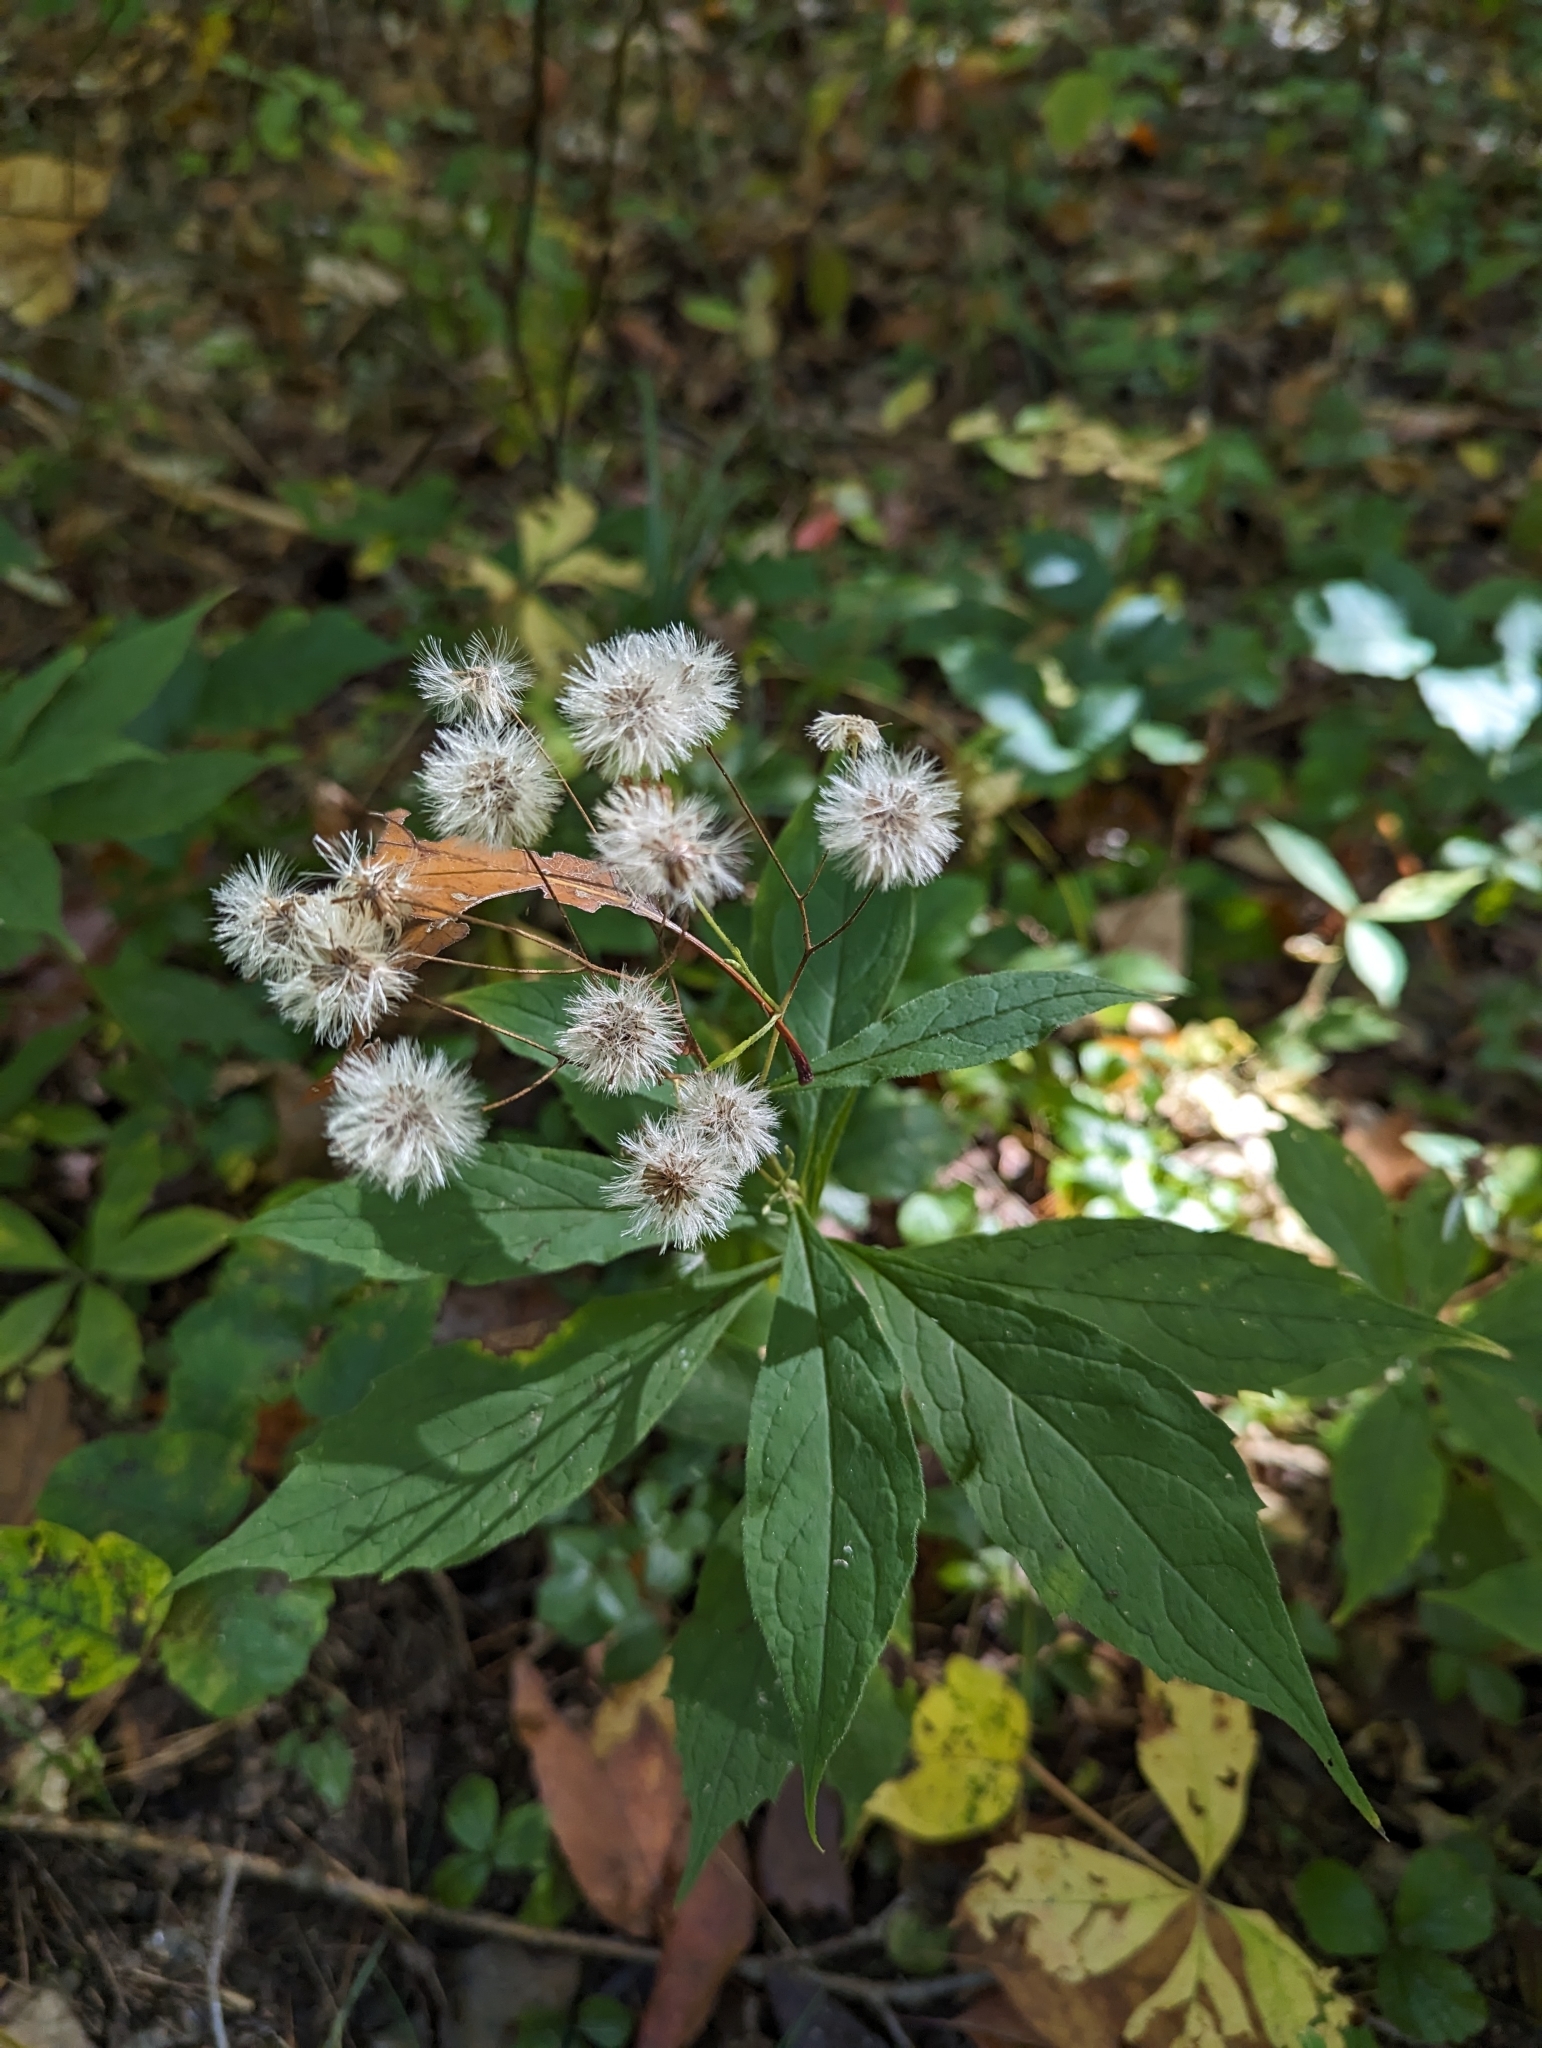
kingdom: Plantae
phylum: Tracheophyta
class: Magnoliopsida
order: Asterales
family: Asteraceae
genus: Oclemena
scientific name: Oclemena acuminata
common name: Mountain aster
